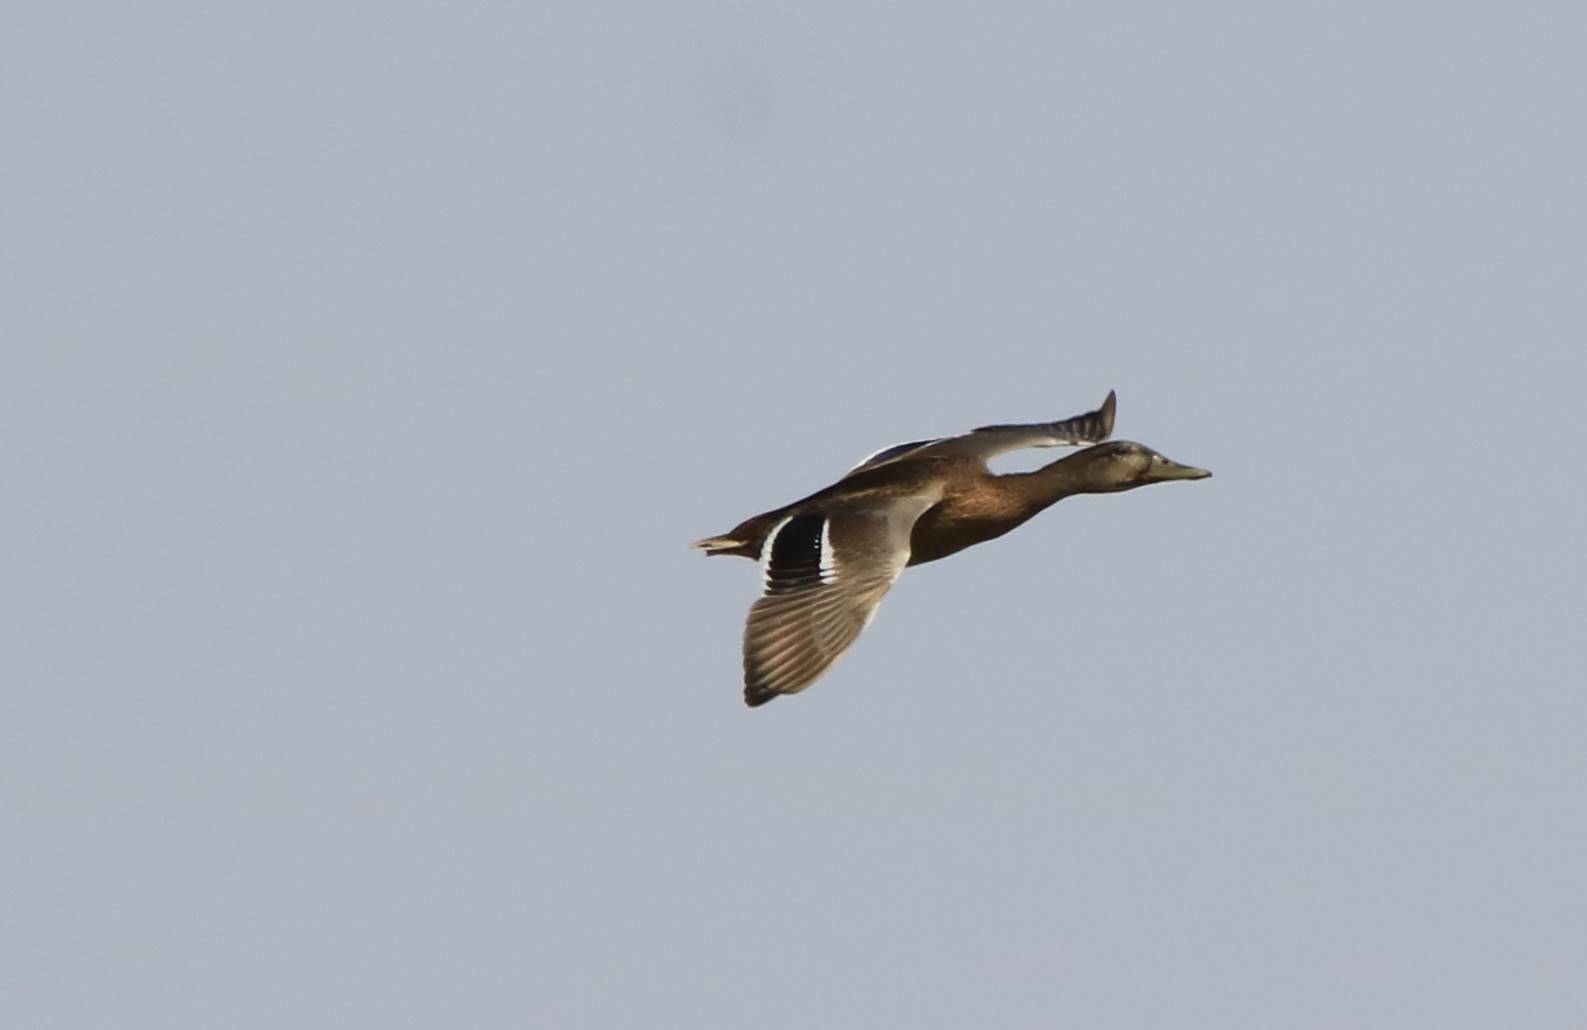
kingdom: Animalia
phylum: Chordata
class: Aves
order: Anseriformes
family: Anatidae
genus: Anas
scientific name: Anas platyrhynchos
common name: Mallard
